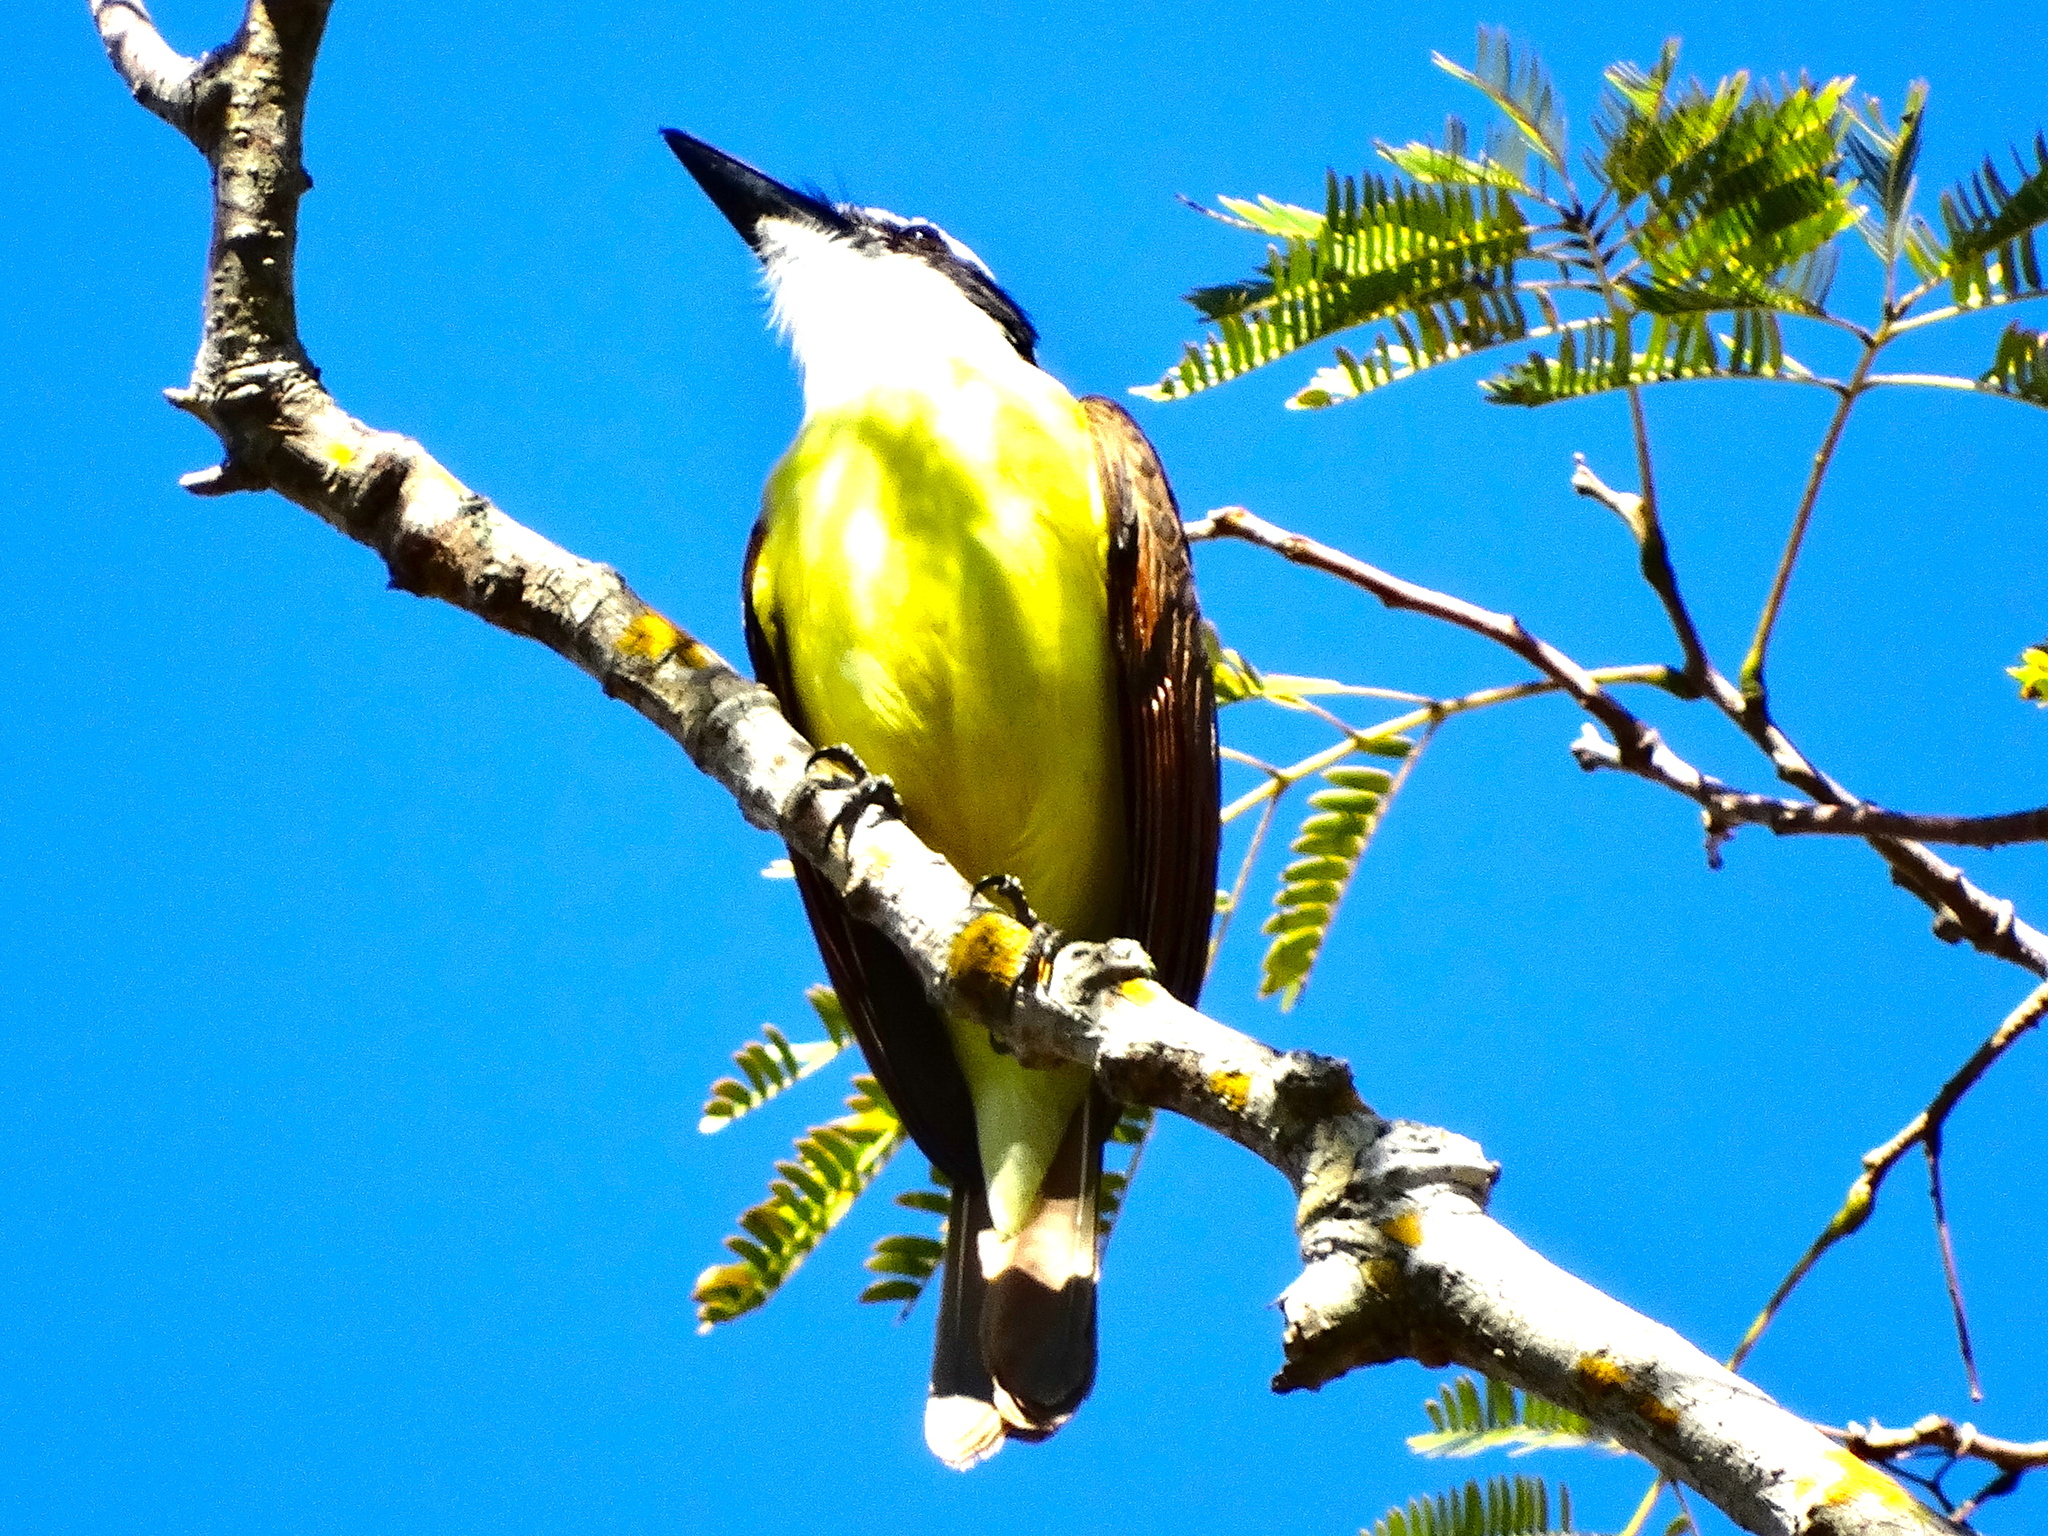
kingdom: Animalia
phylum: Chordata
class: Aves
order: Passeriformes
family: Tyrannidae
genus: Pitangus
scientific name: Pitangus sulphuratus
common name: Great kiskadee
